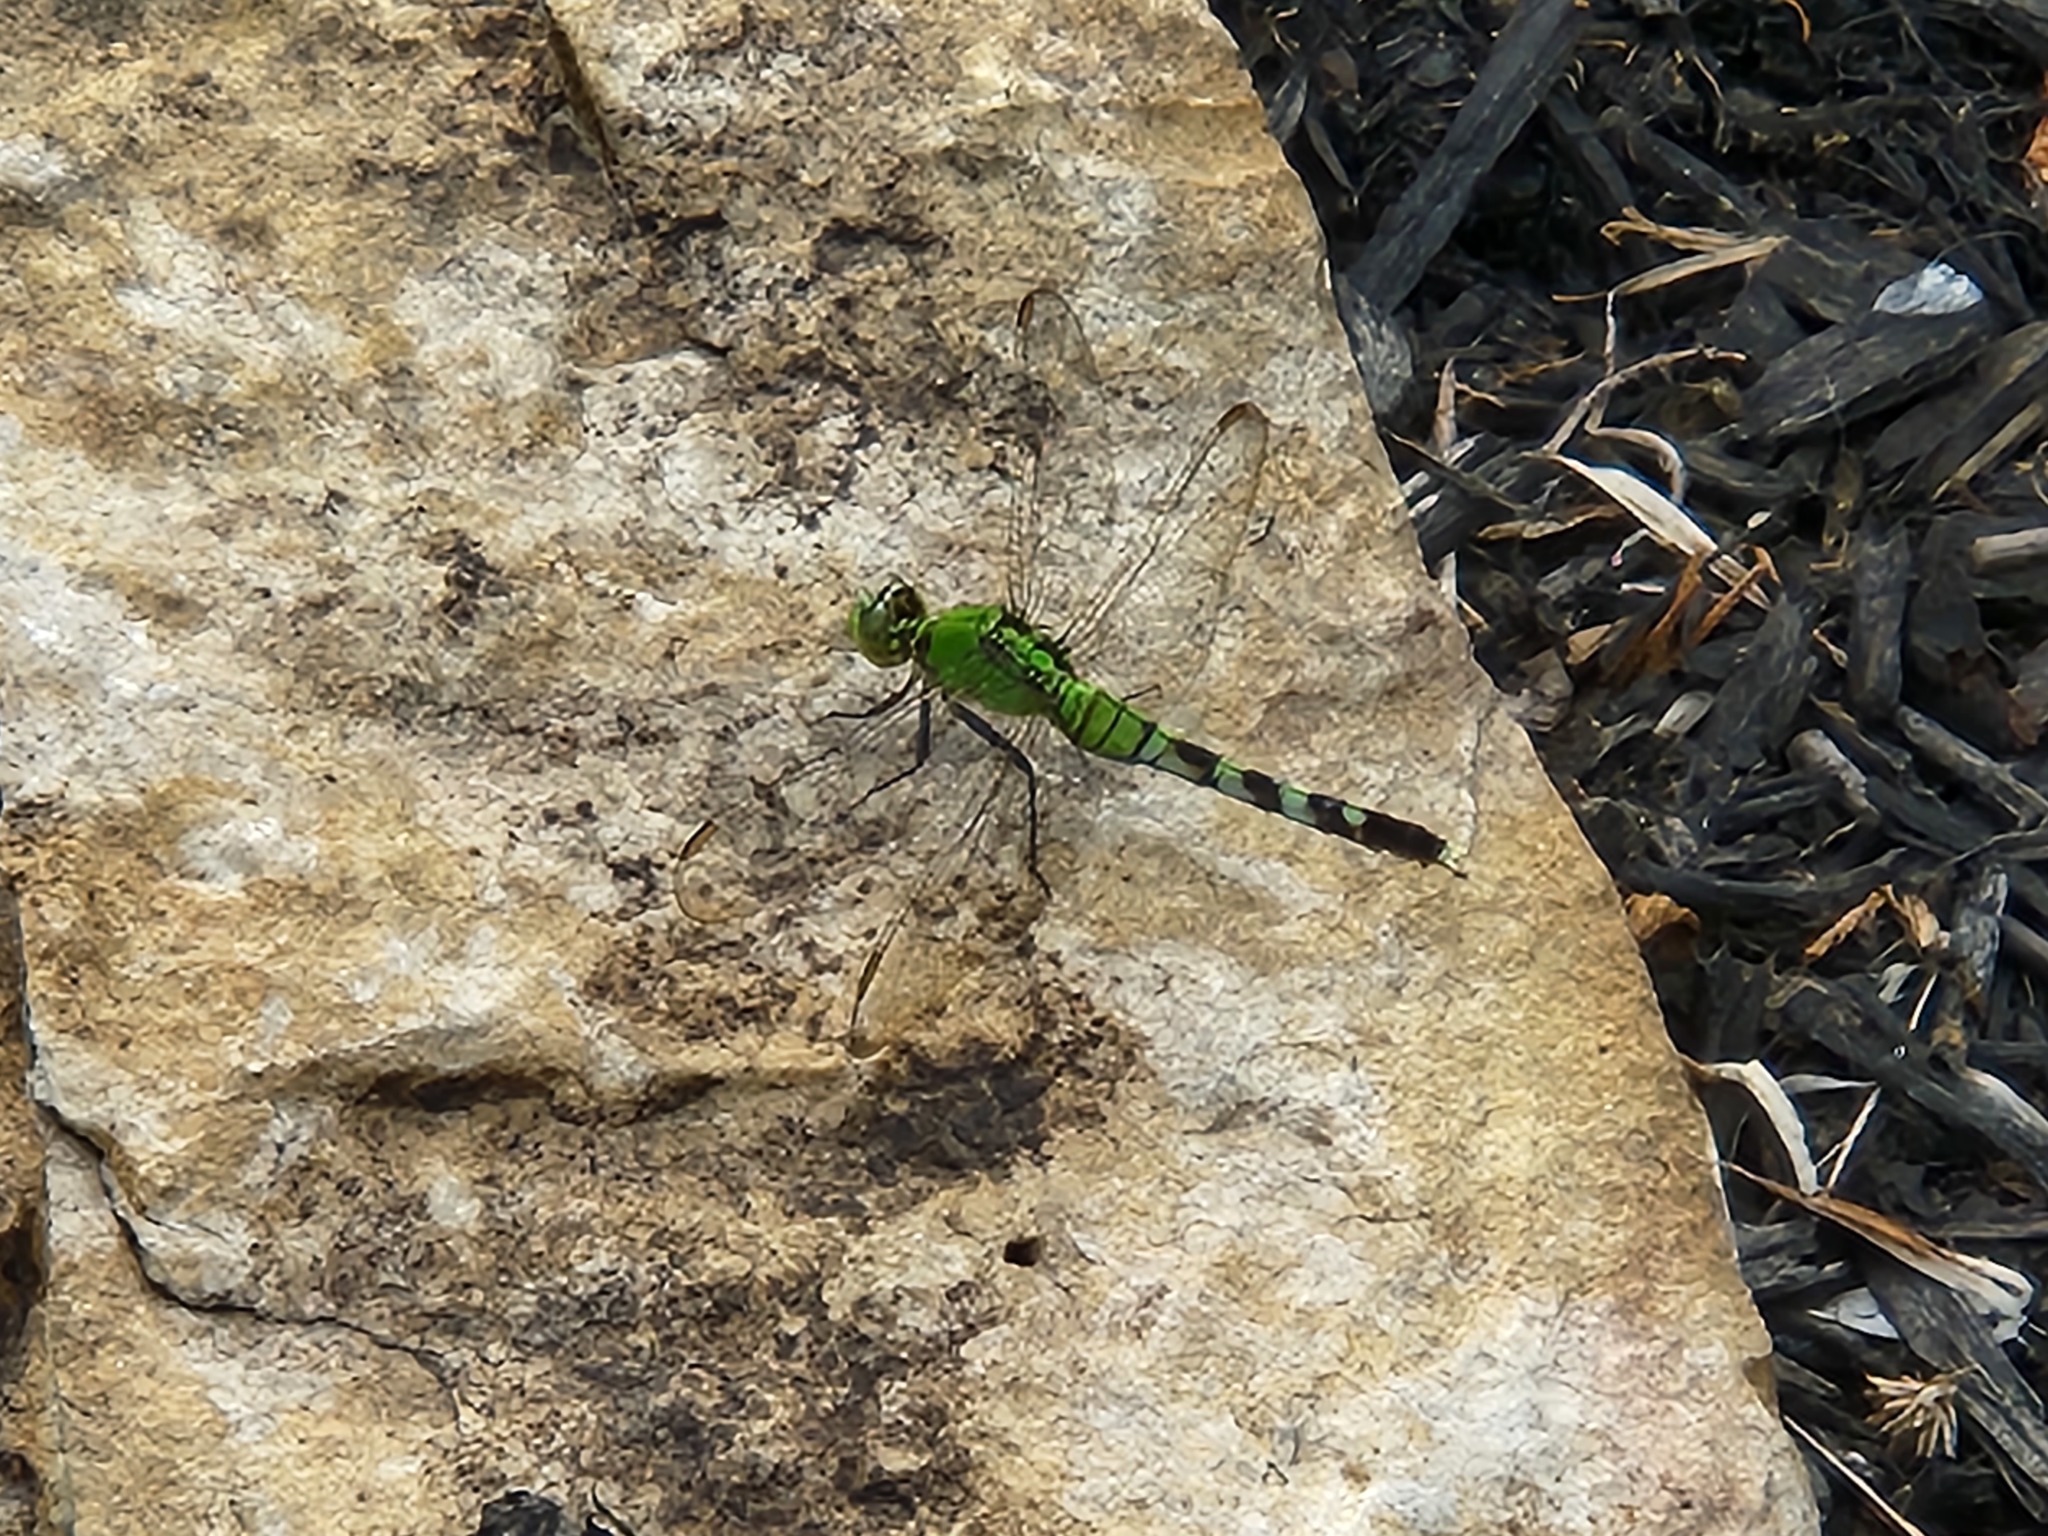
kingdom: Animalia
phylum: Arthropoda
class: Insecta
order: Odonata
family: Libellulidae
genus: Erythemis
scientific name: Erythemis simplicicollis
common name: Eastern pondhawk
